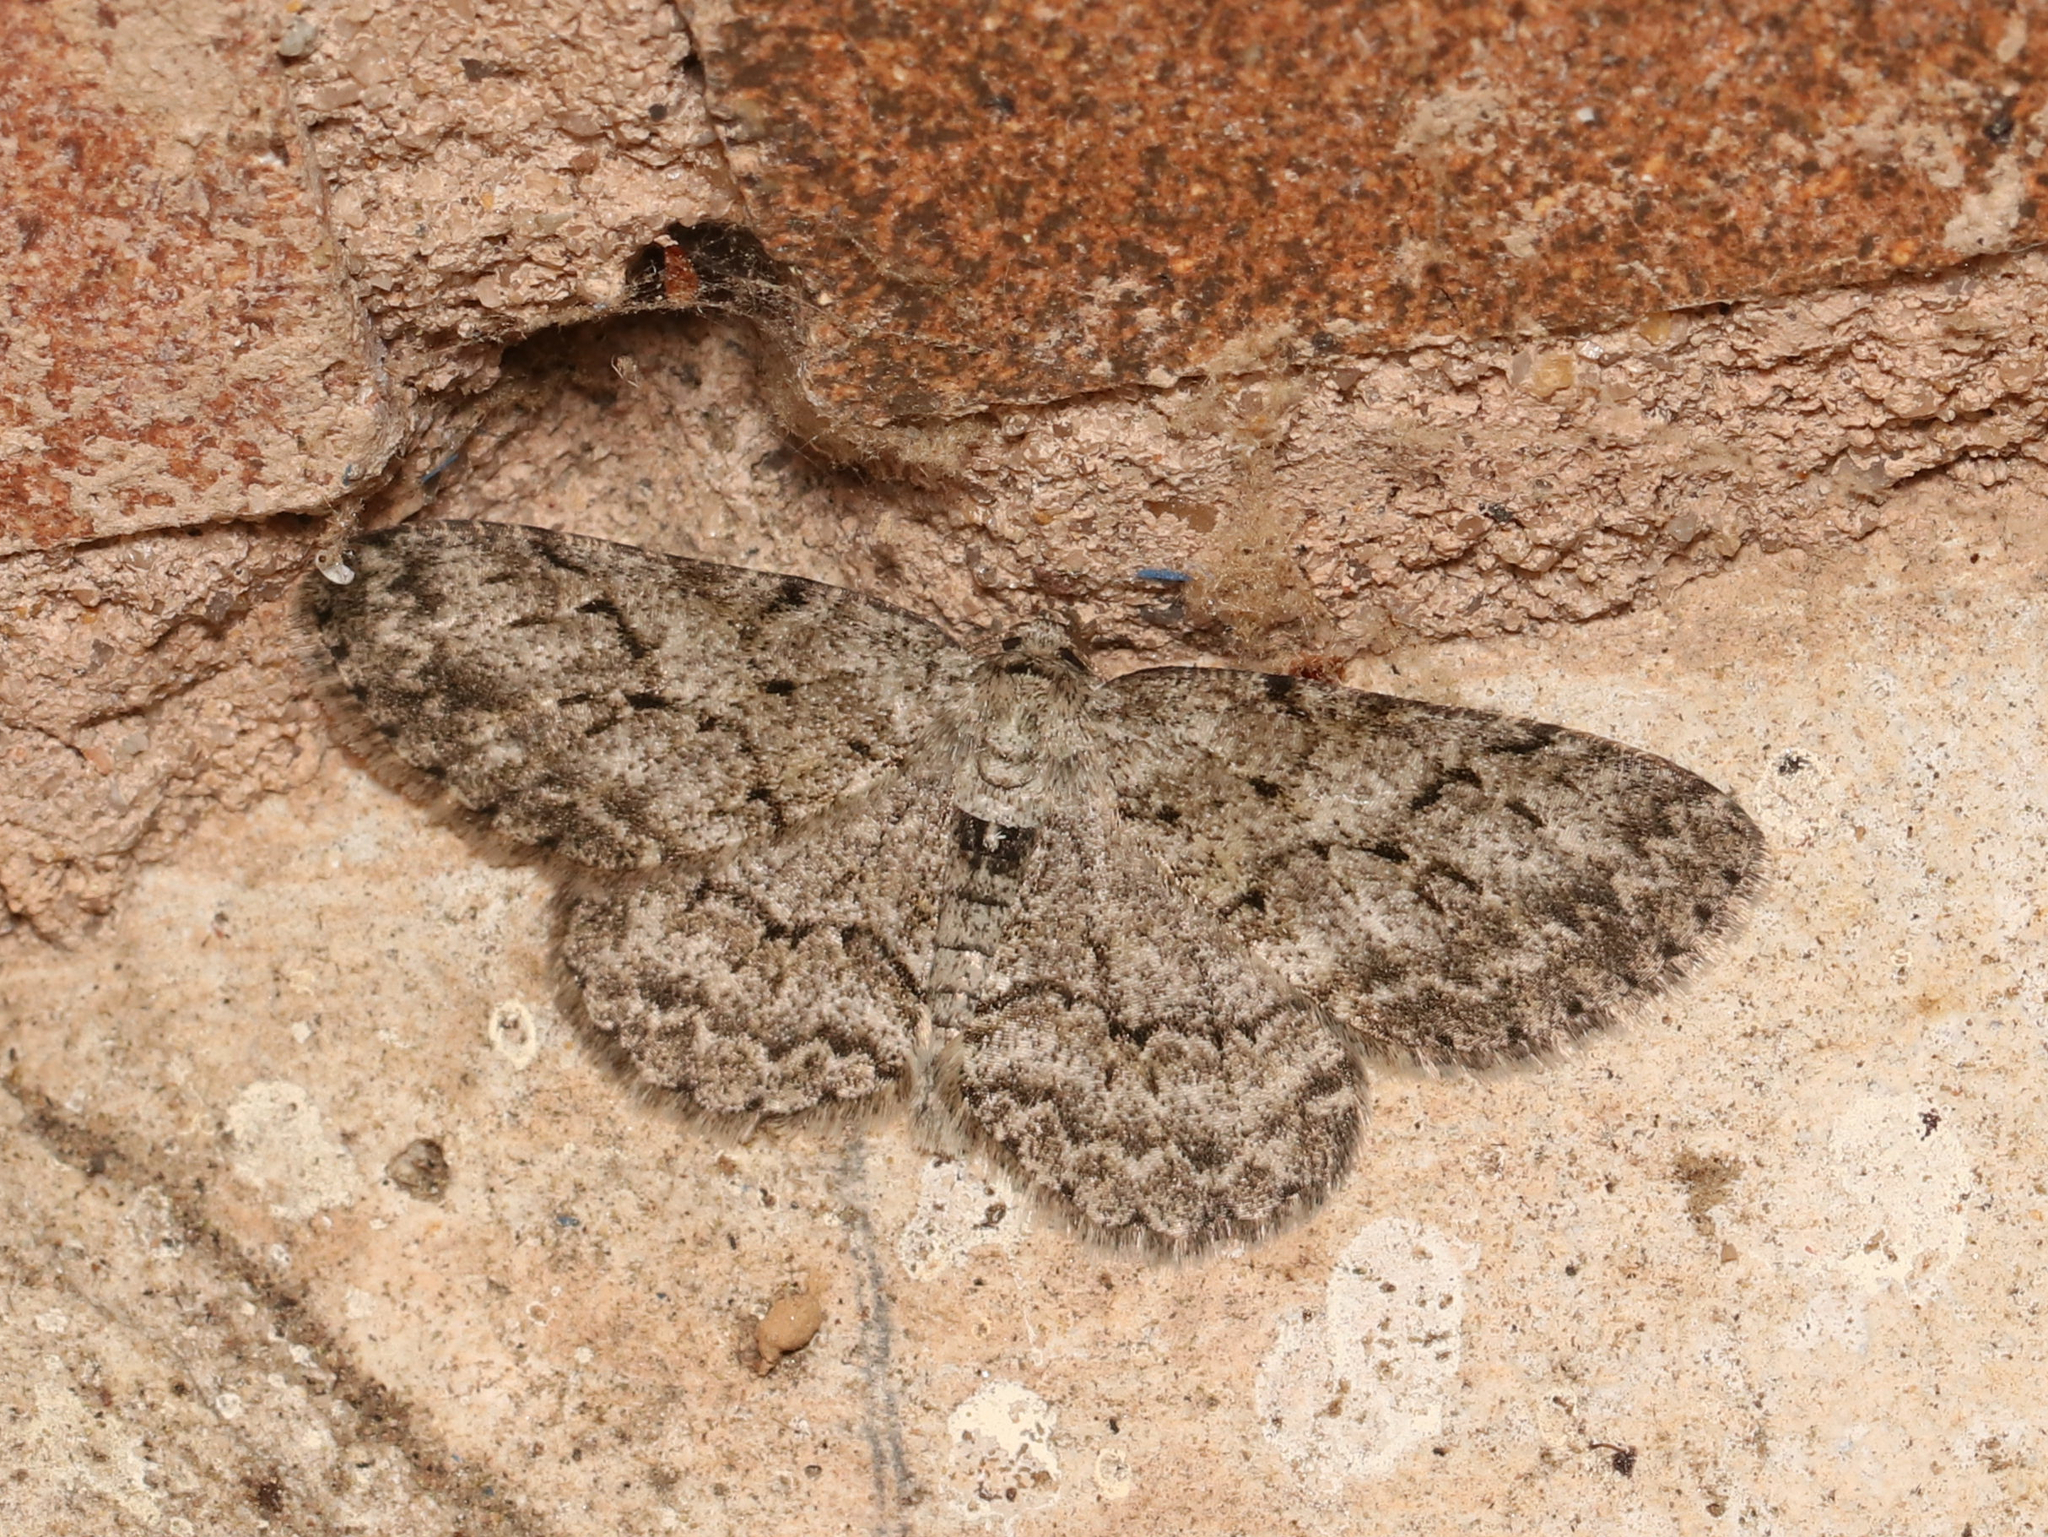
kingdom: Animalia
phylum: Arthropoda
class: Insecta
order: Lepidoptera
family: Geometridae
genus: Ectropis
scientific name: Ectropis crepuscularia
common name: Engrailed
